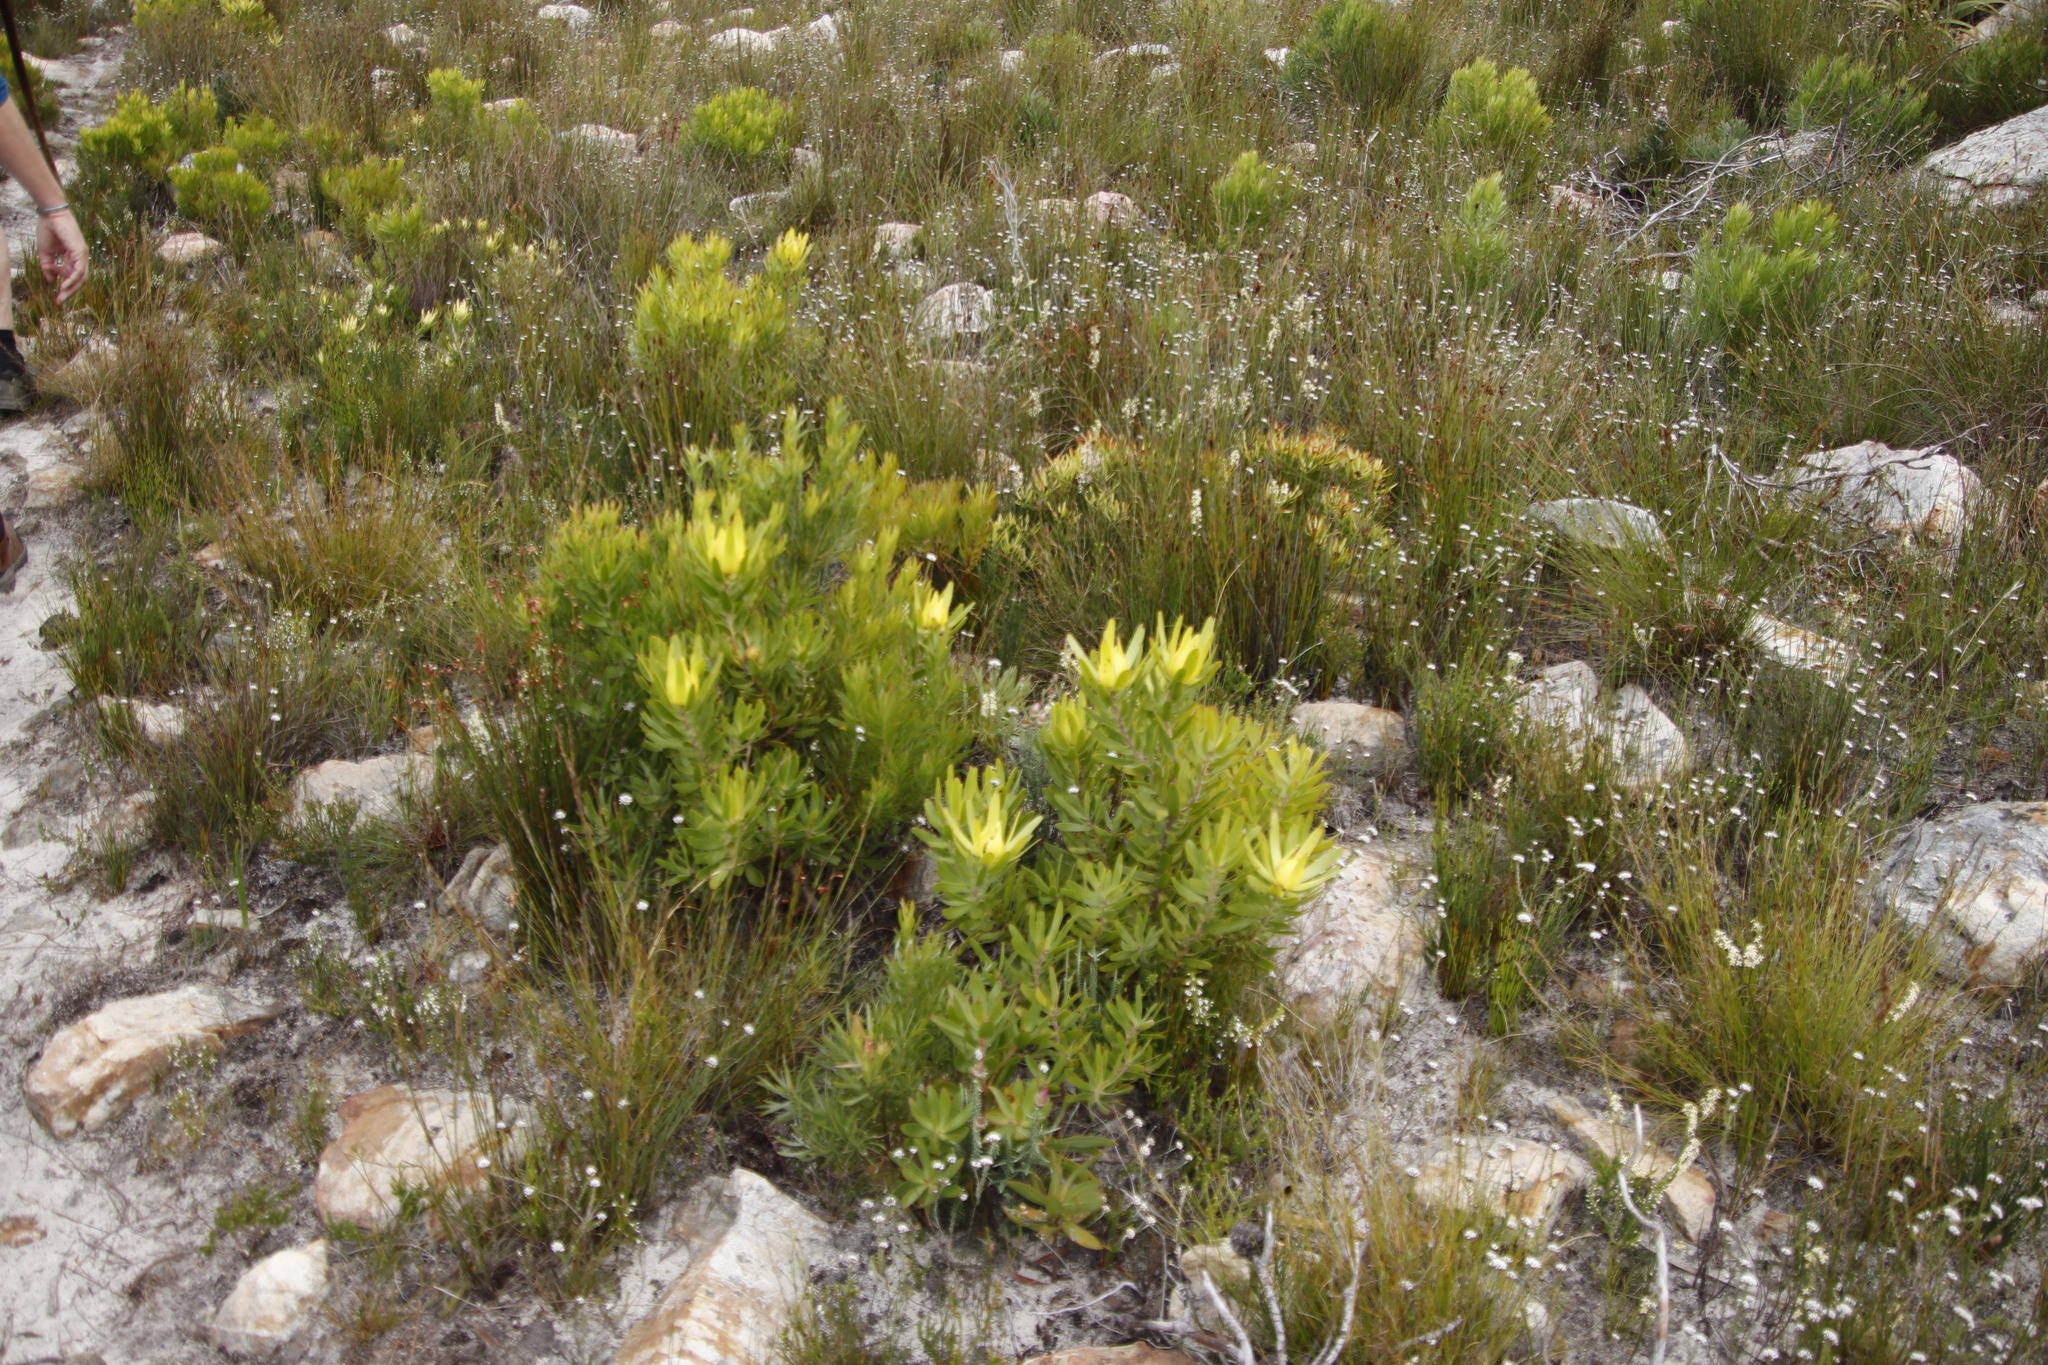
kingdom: Plantae
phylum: Tracheophyta
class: Magnoliopsida
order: Proteales
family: Proteaceae
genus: Leucadendron
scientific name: Leucadendron laureolum
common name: Golden sunshinebush
